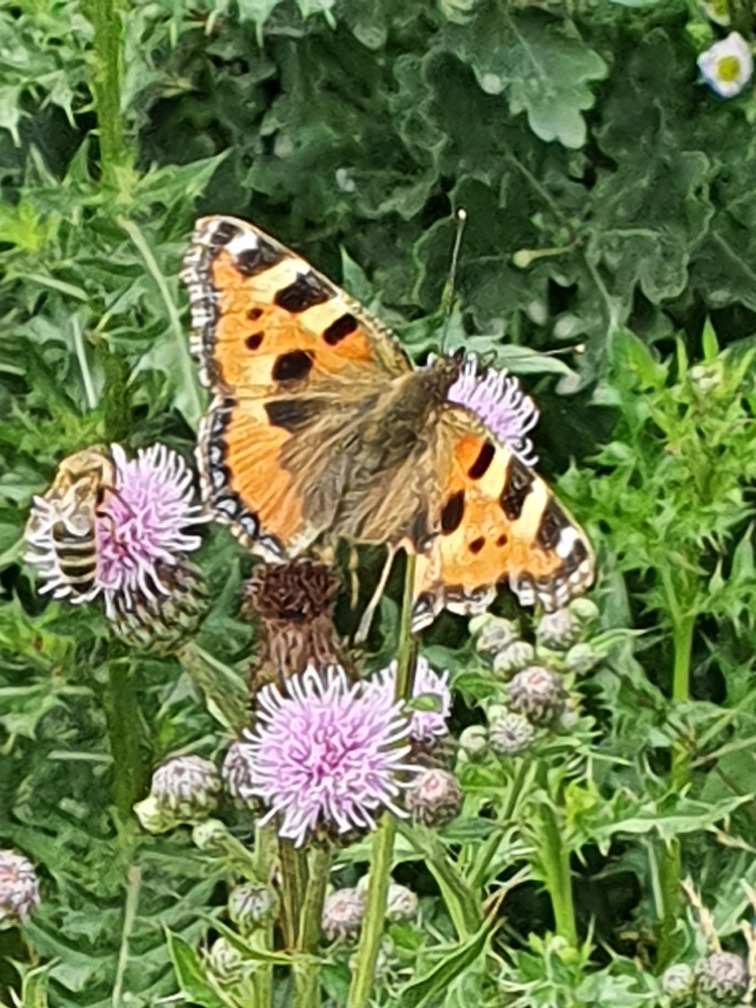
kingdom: Animalia
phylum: Arthropoda
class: Insecta
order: Lepidoptera
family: Nymphalidae
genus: Aglais
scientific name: Aglais urticae
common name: Small tortoiseshell
